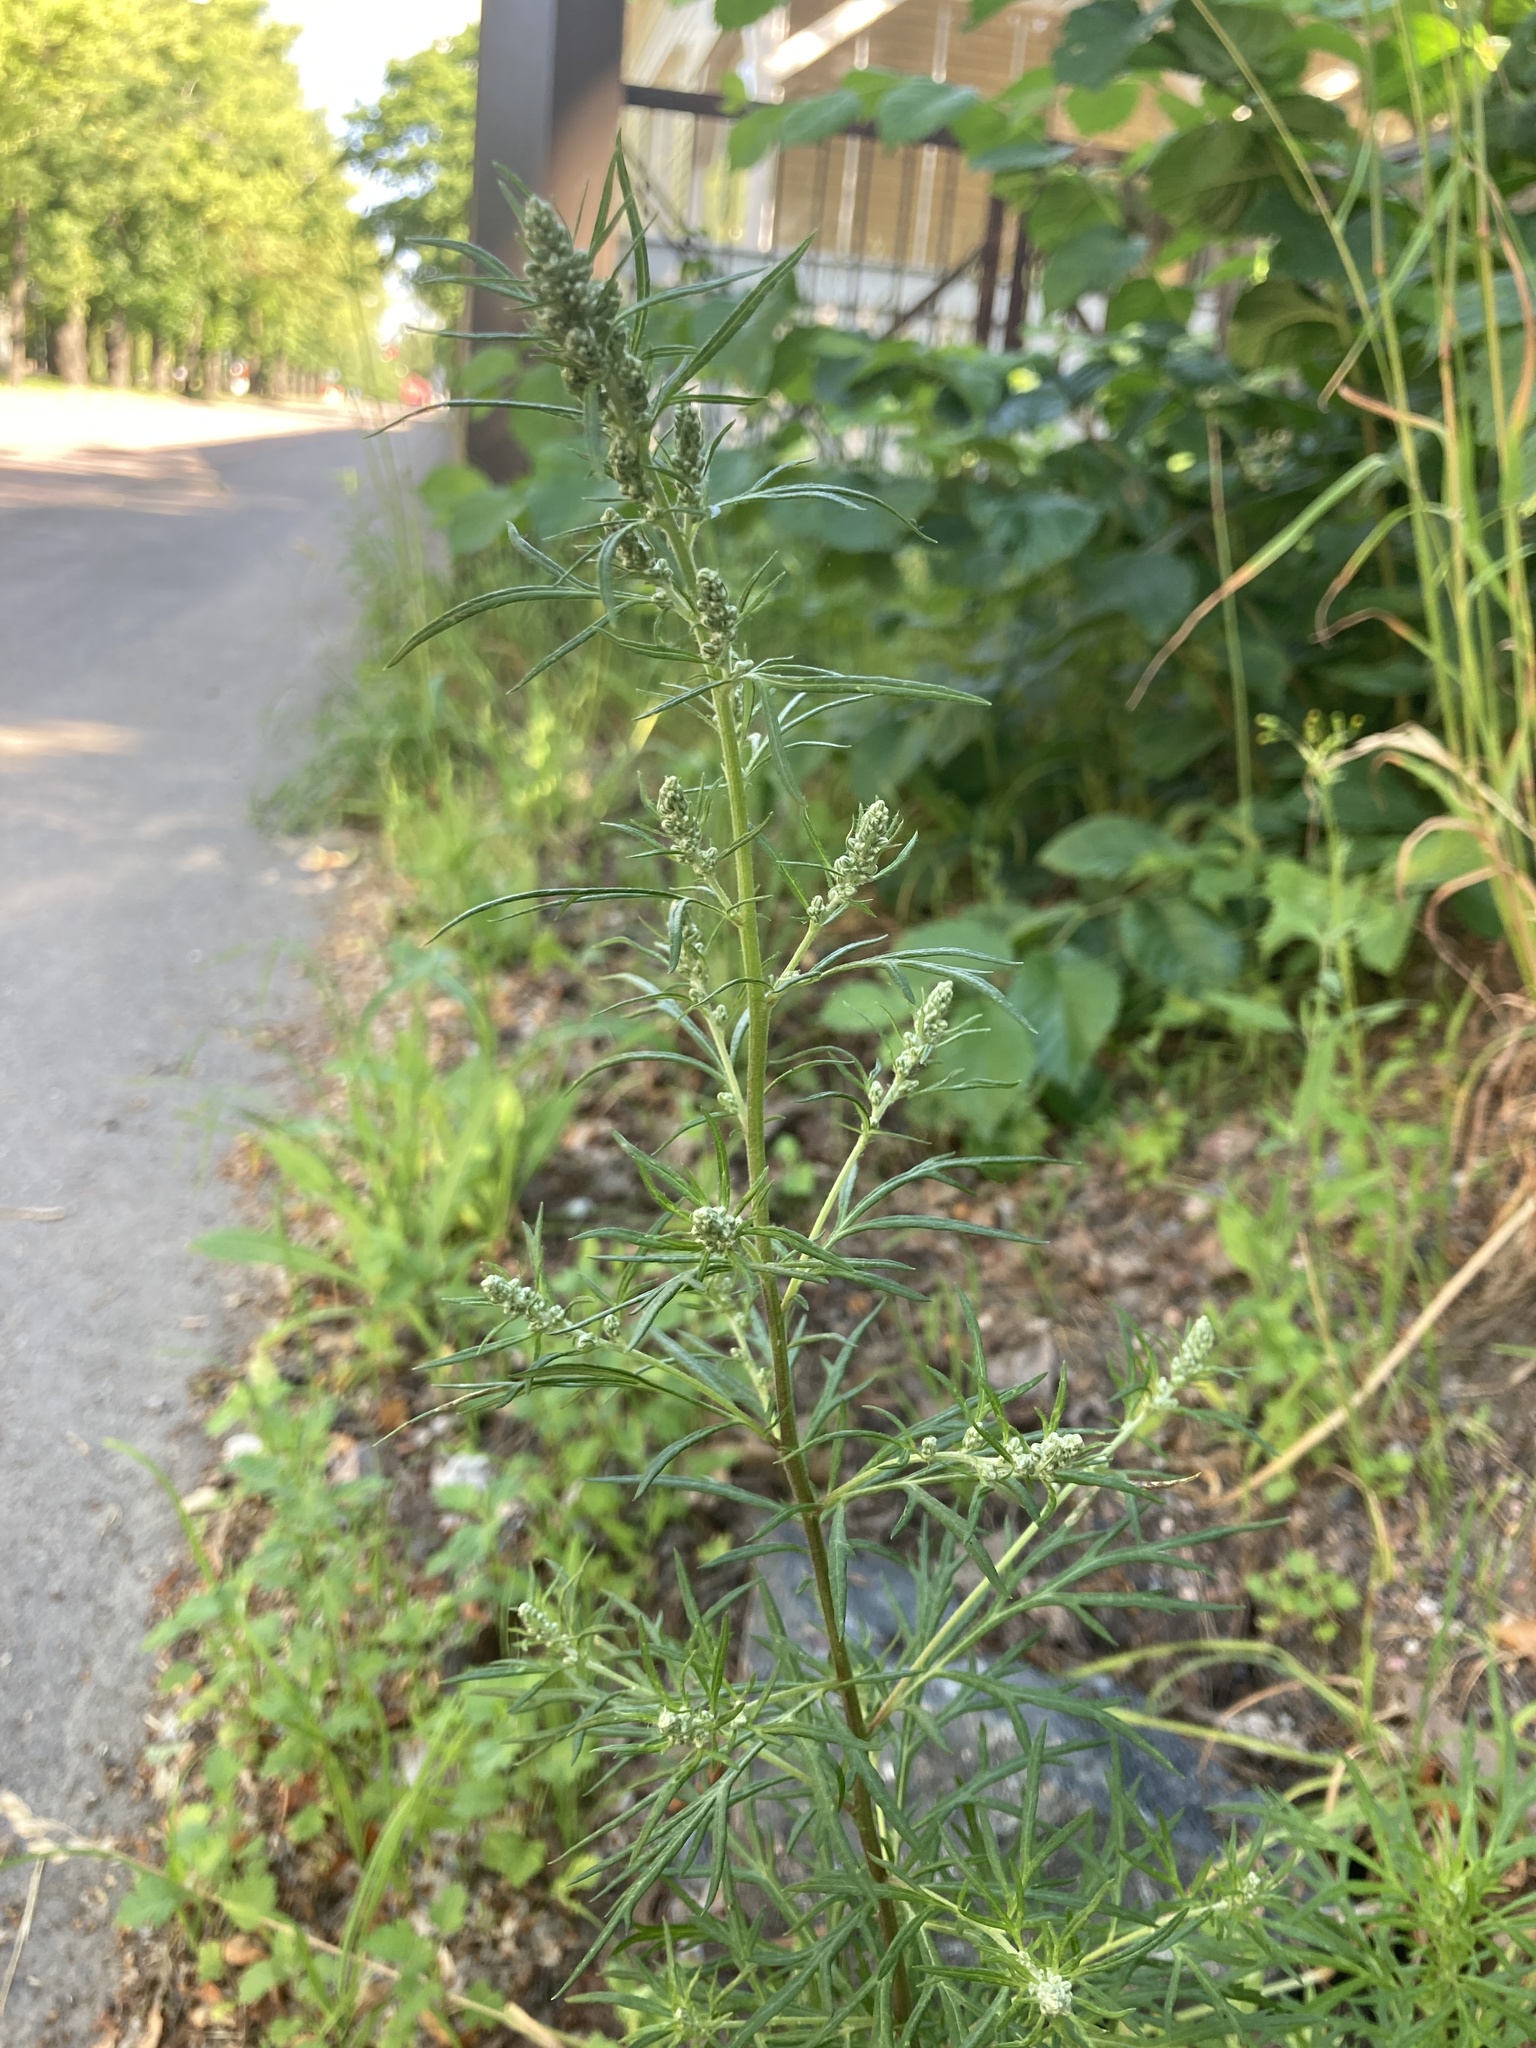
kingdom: Plantae
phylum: Tracheophyta
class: Magnoliopsida
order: Asterales
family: Asteraceae
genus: Artemisia
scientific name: Artemisia vulgaris
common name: Mugwort
